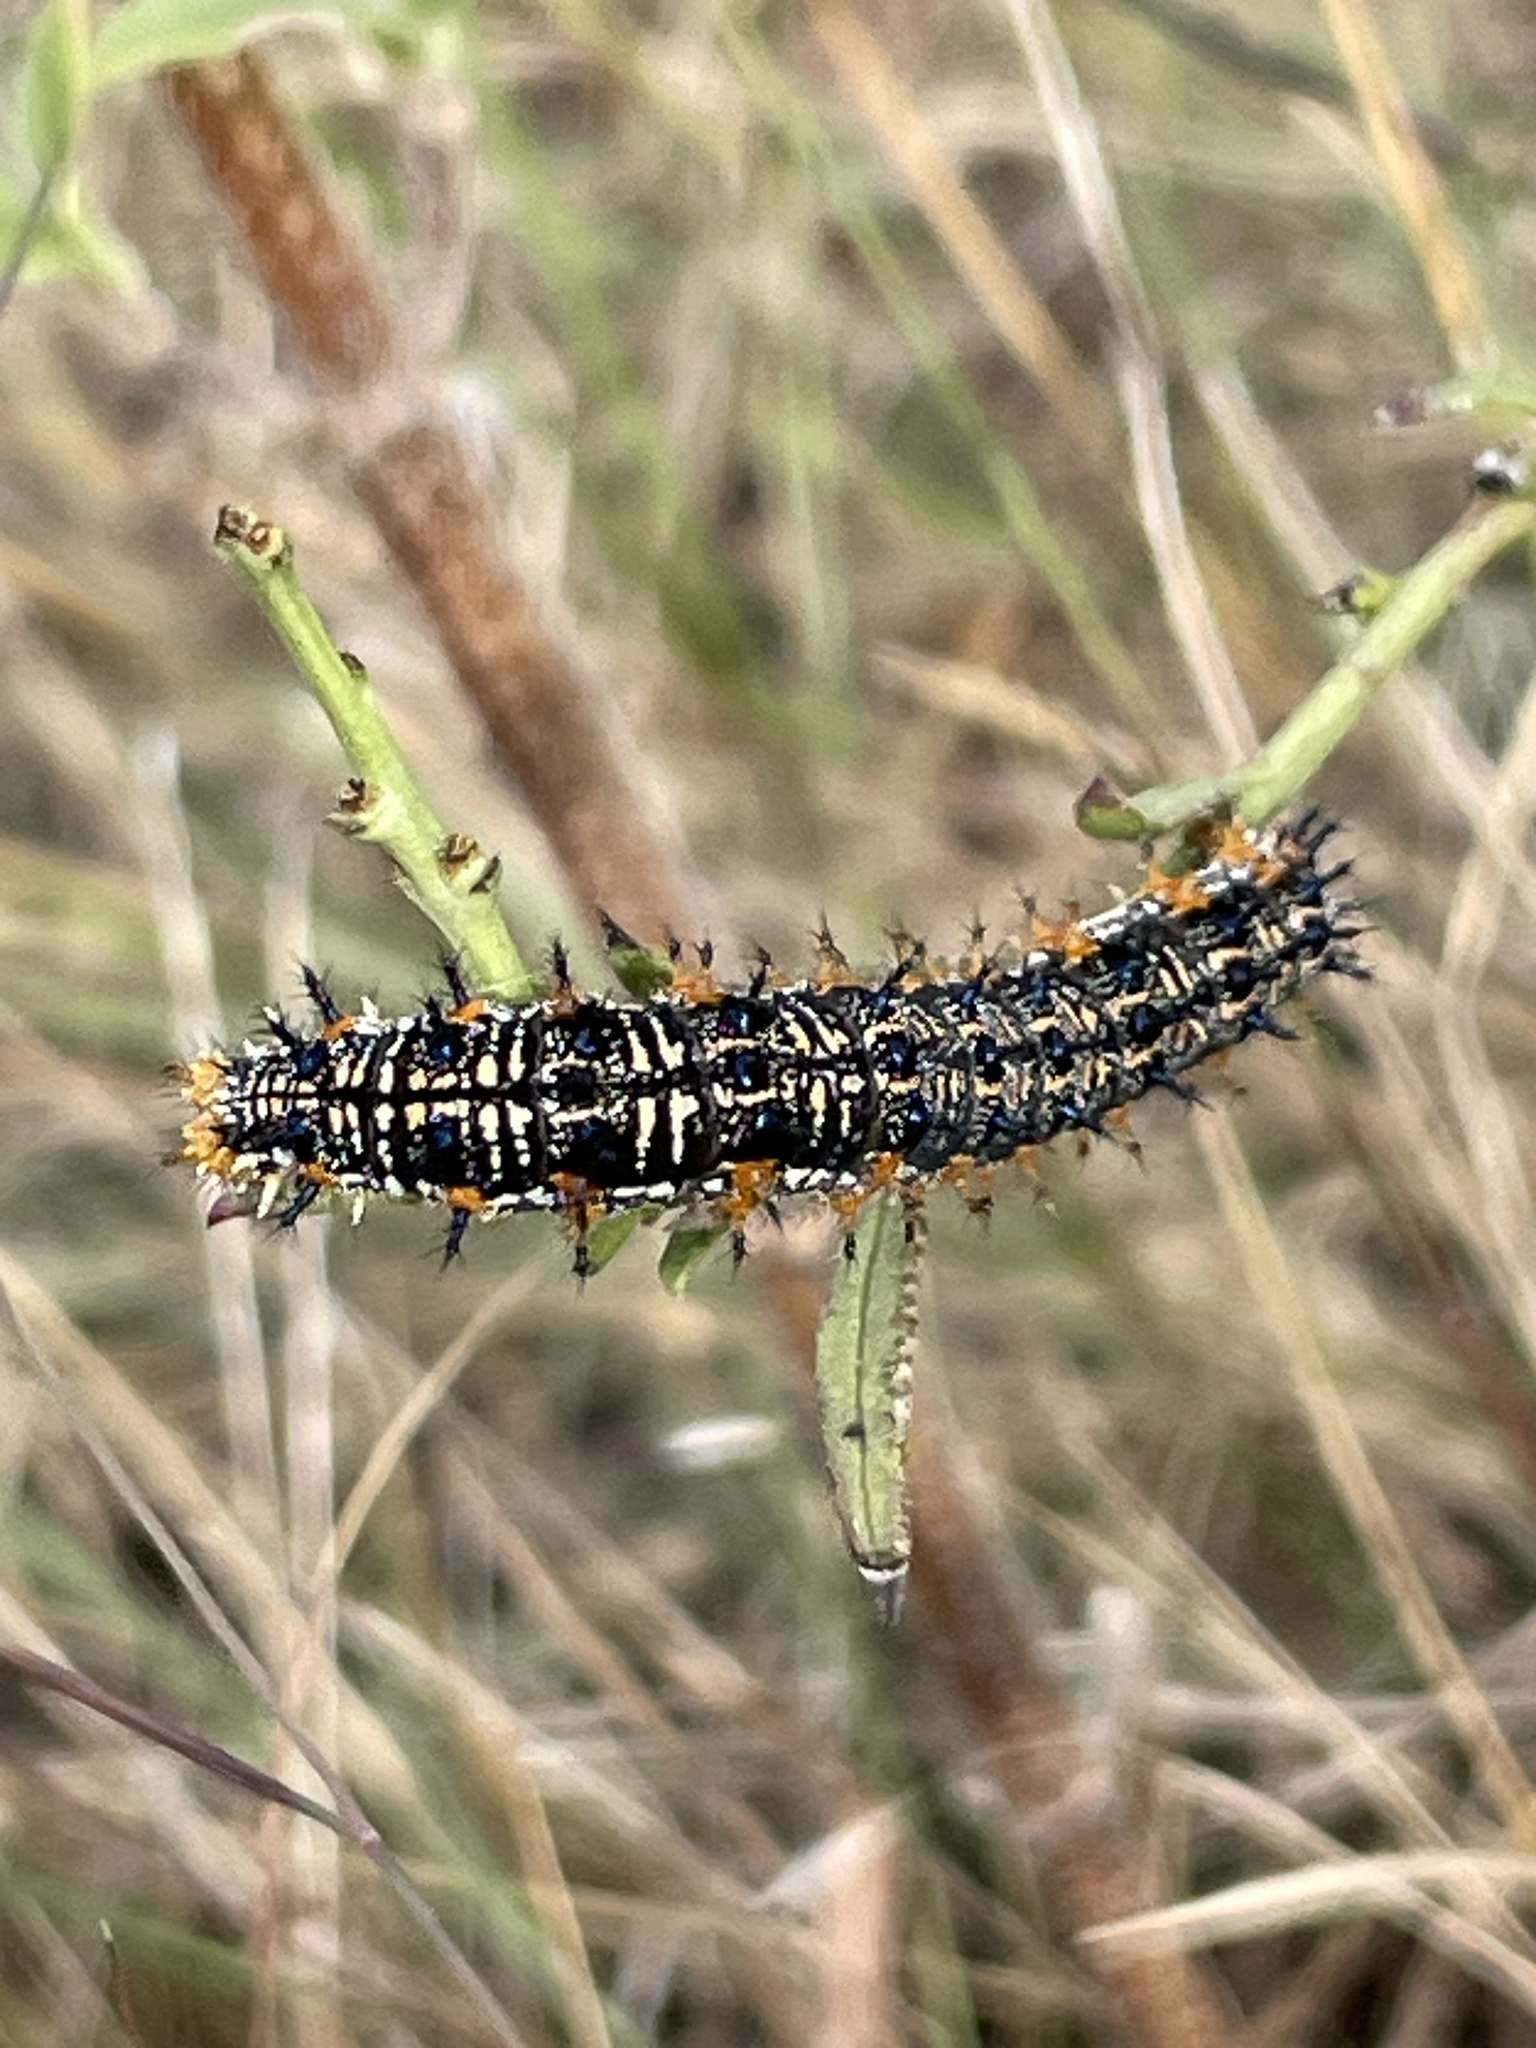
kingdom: Animalia
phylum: Arthropoda
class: Insecta
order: Lepidoptera
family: Nymphalidae
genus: Junonia
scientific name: Junonia coenia
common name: Common buckeye
